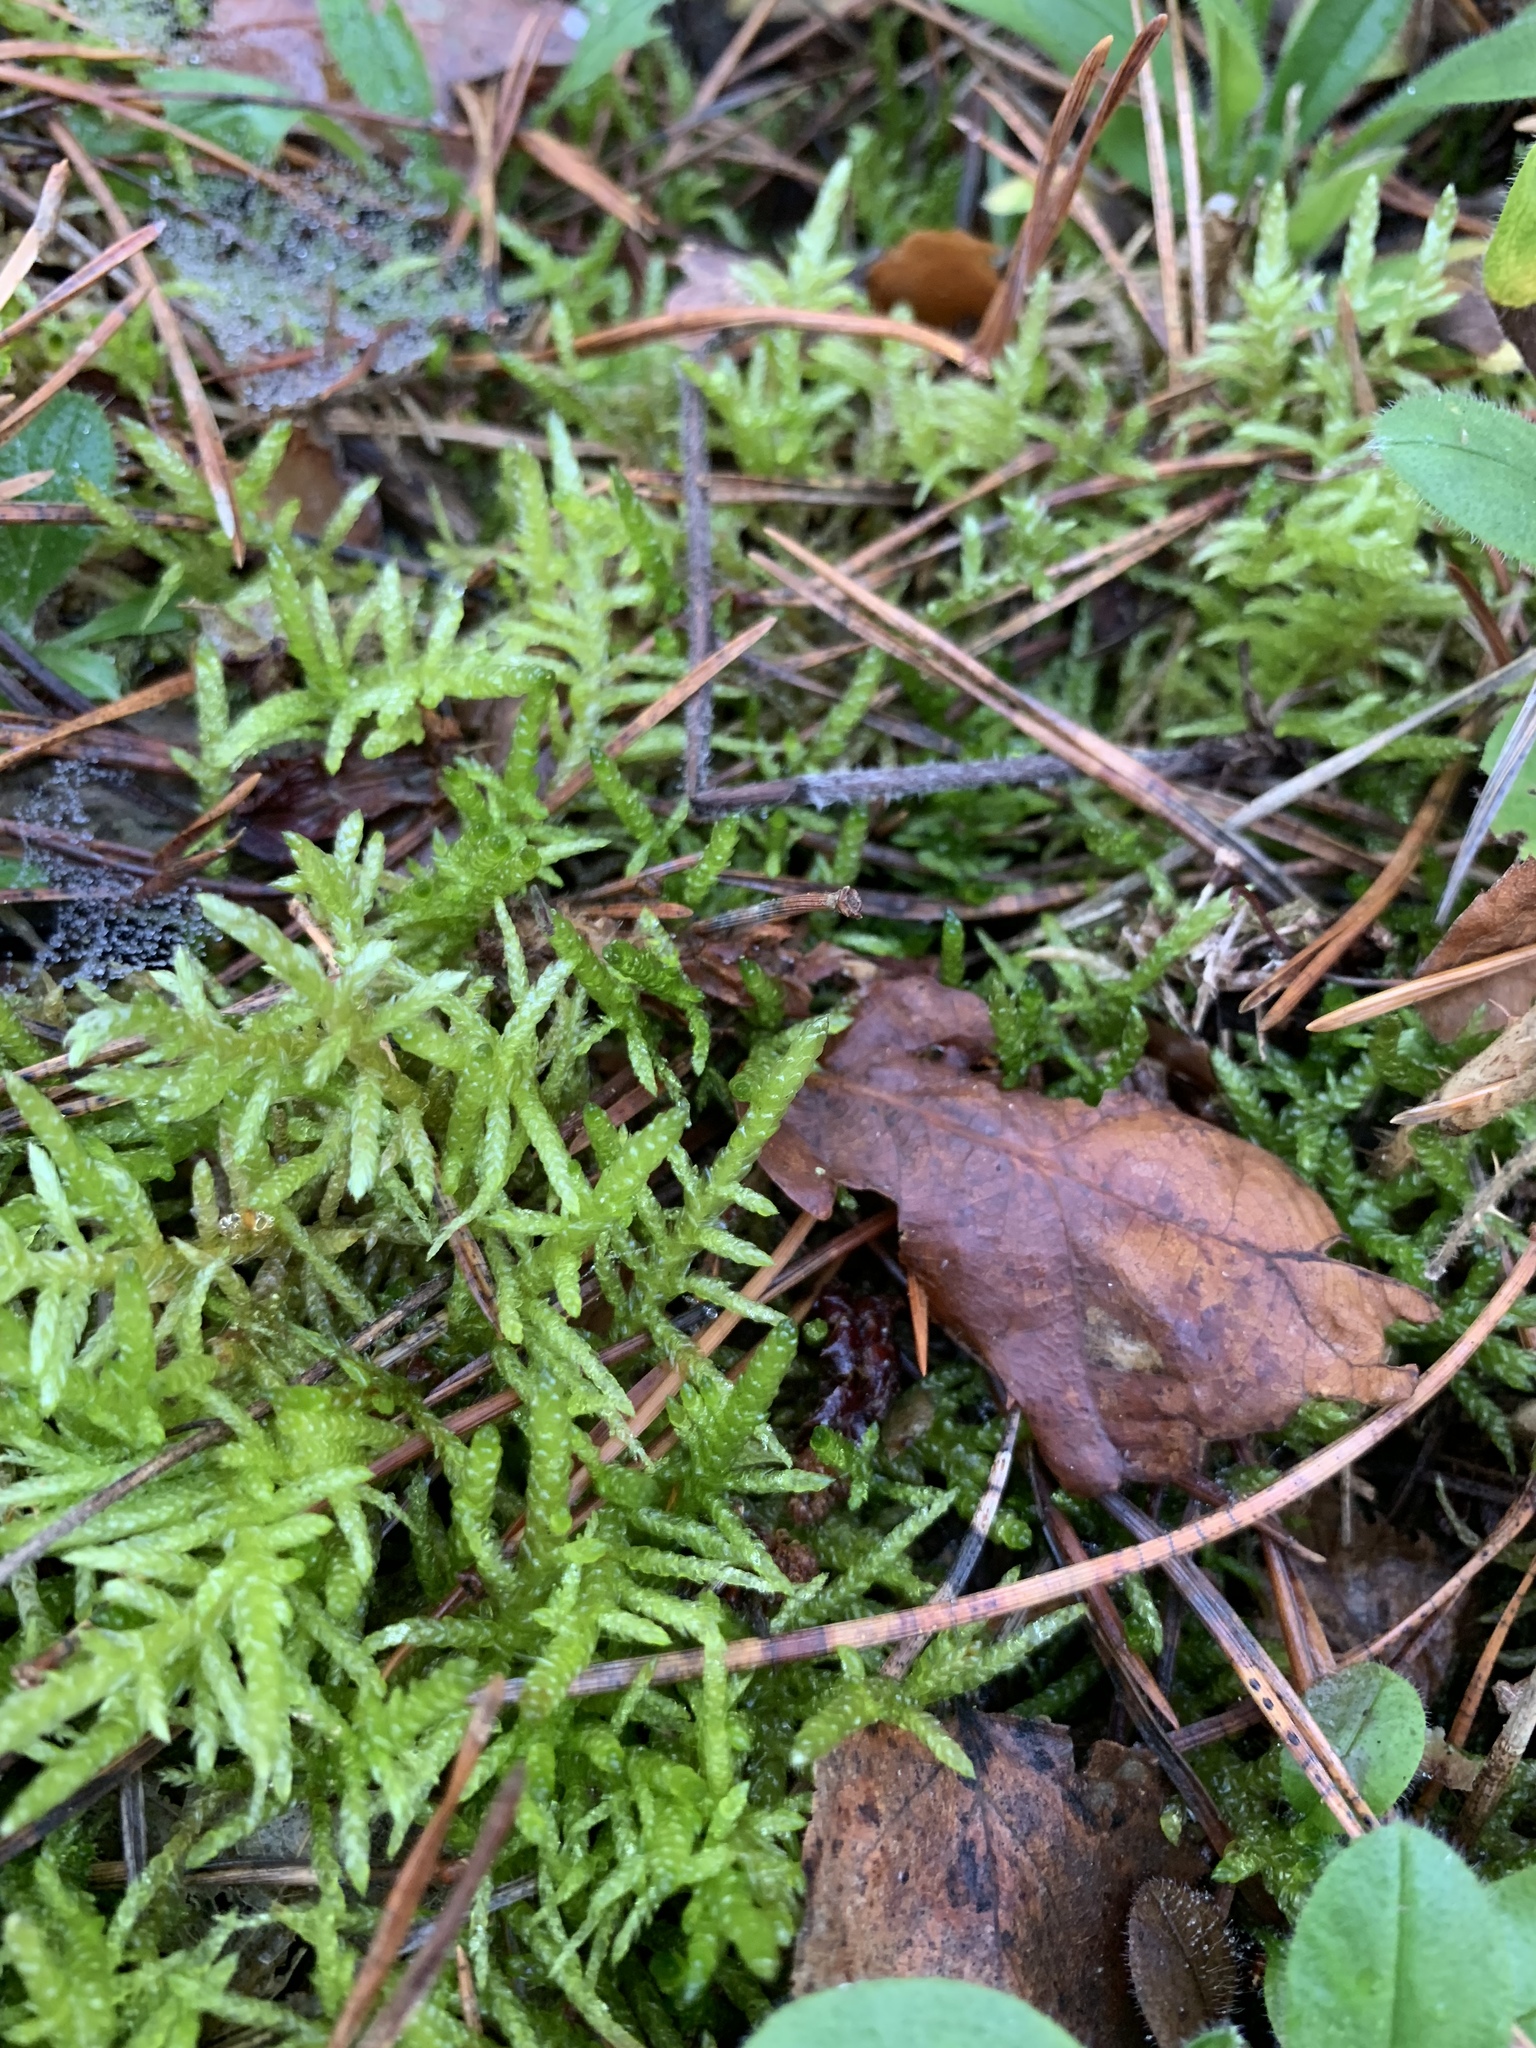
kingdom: Plantae
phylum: Bryophyta
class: Bryopsida
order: Hypnales
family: Brachytheciaceae
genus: Pseudoscleropodium
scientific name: Pseudoscleropodium purum
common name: Neat feather-moss
